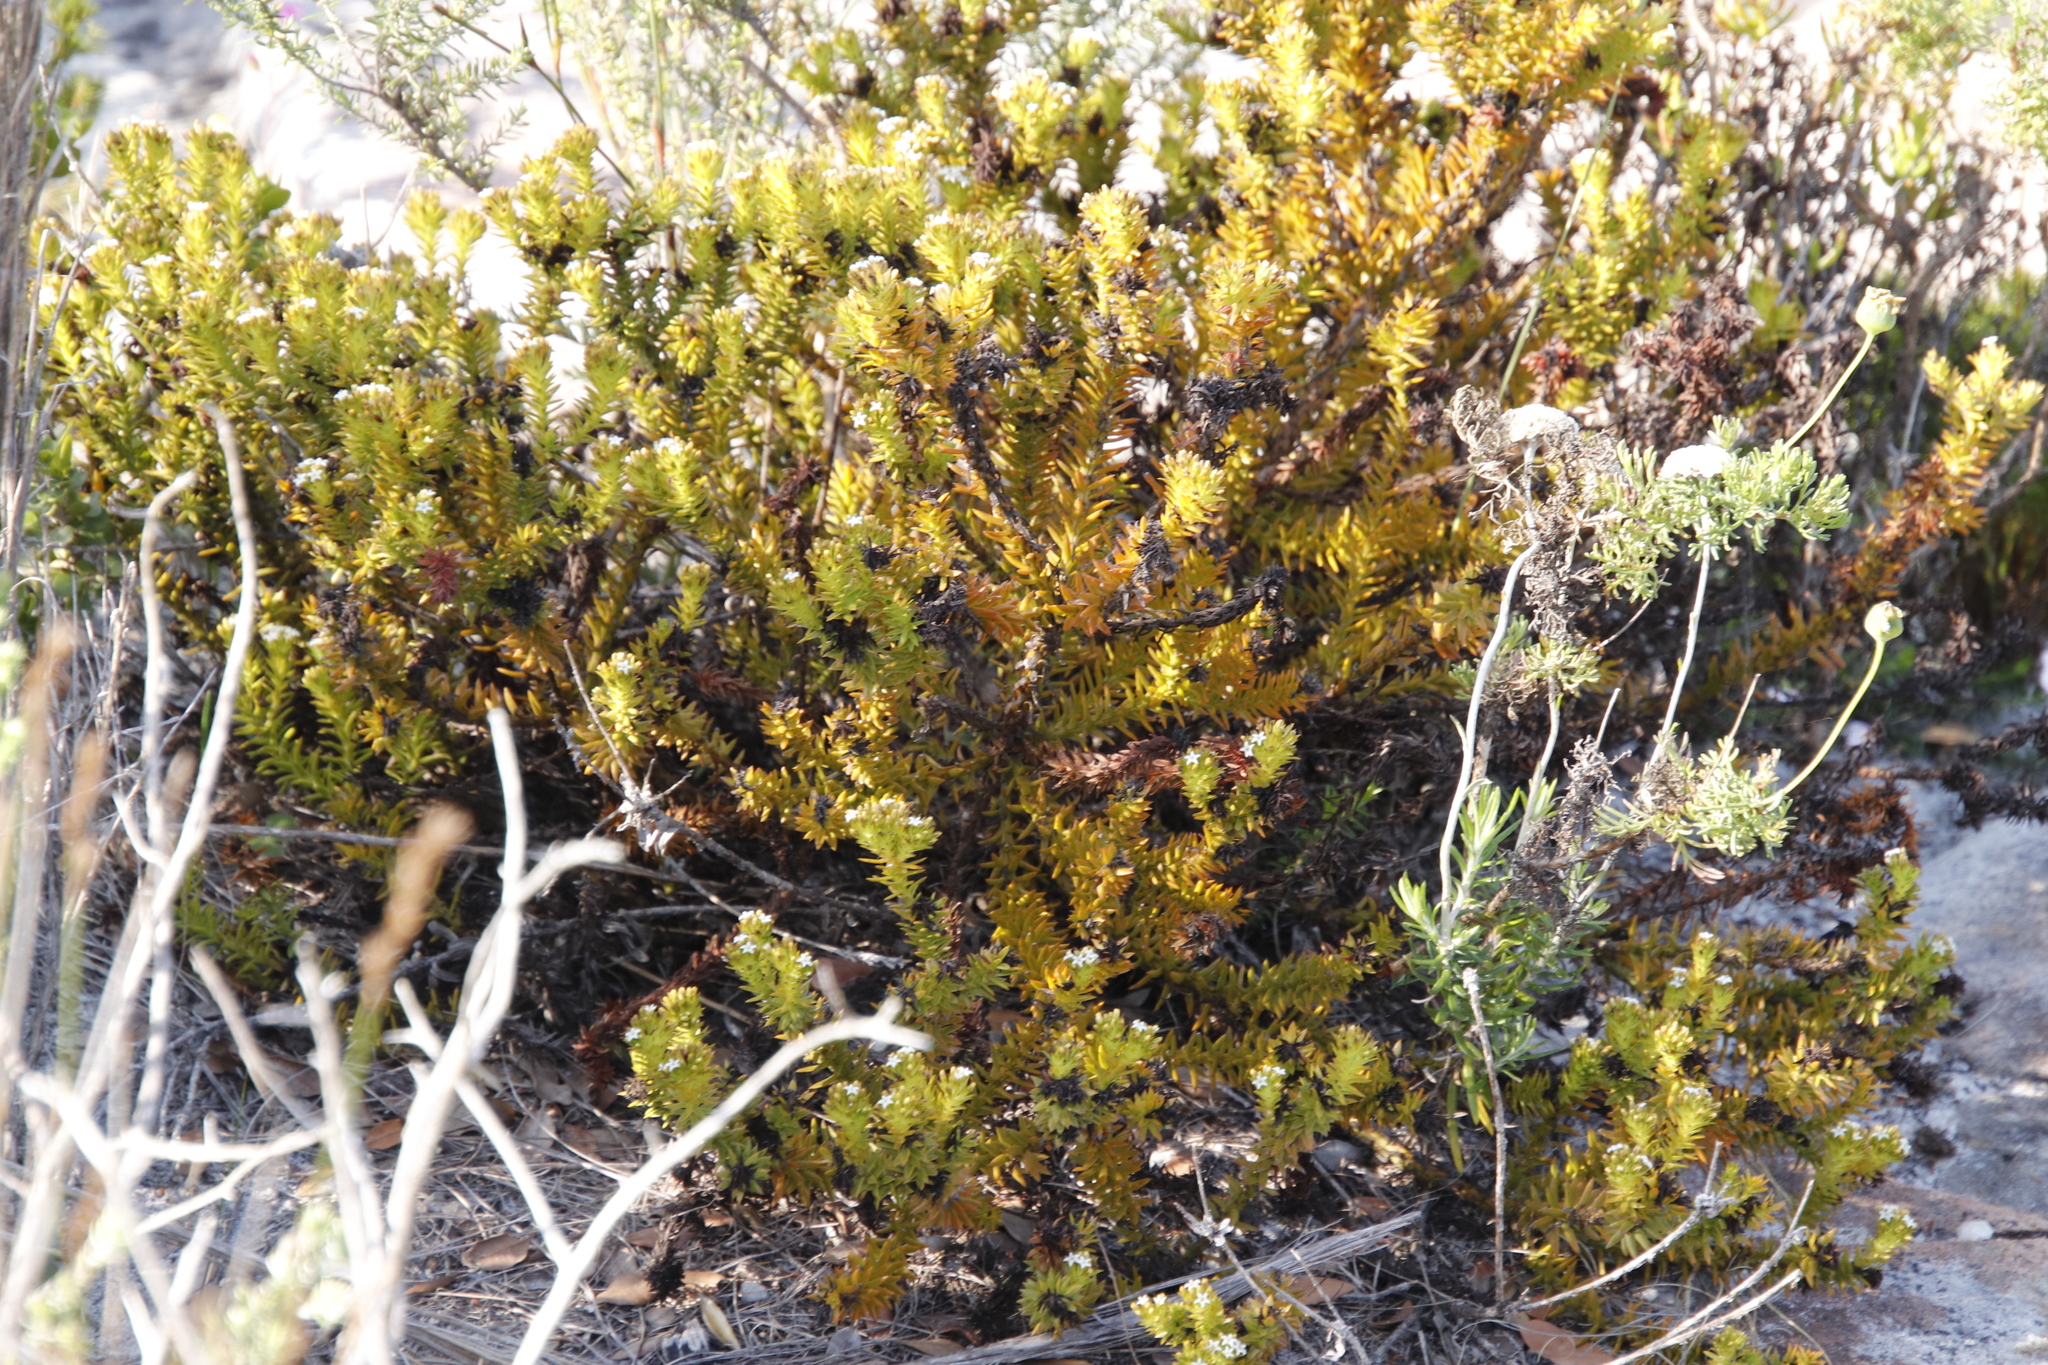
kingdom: Plantae
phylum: Tracheophyta
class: Magnoliopsida
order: Santalales
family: Thesiaceae
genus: Thesium
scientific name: Thesium viridifolium
